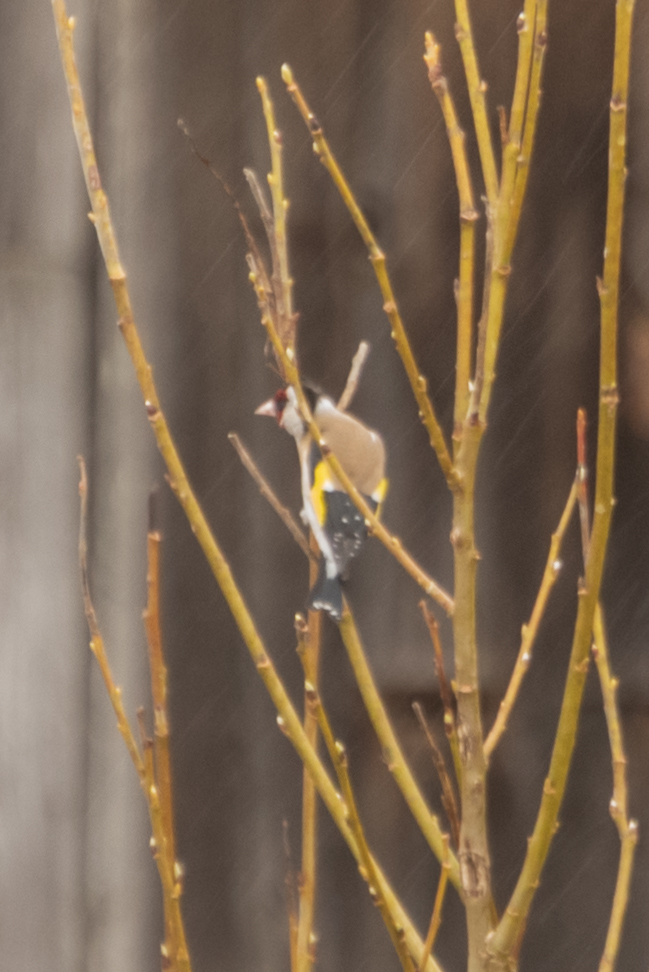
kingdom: Animalia
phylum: Chordata
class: Aves
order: Passeriformes
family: Fringillidae
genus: Carduelis
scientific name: Carduelis carduelis
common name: European goldfinch
